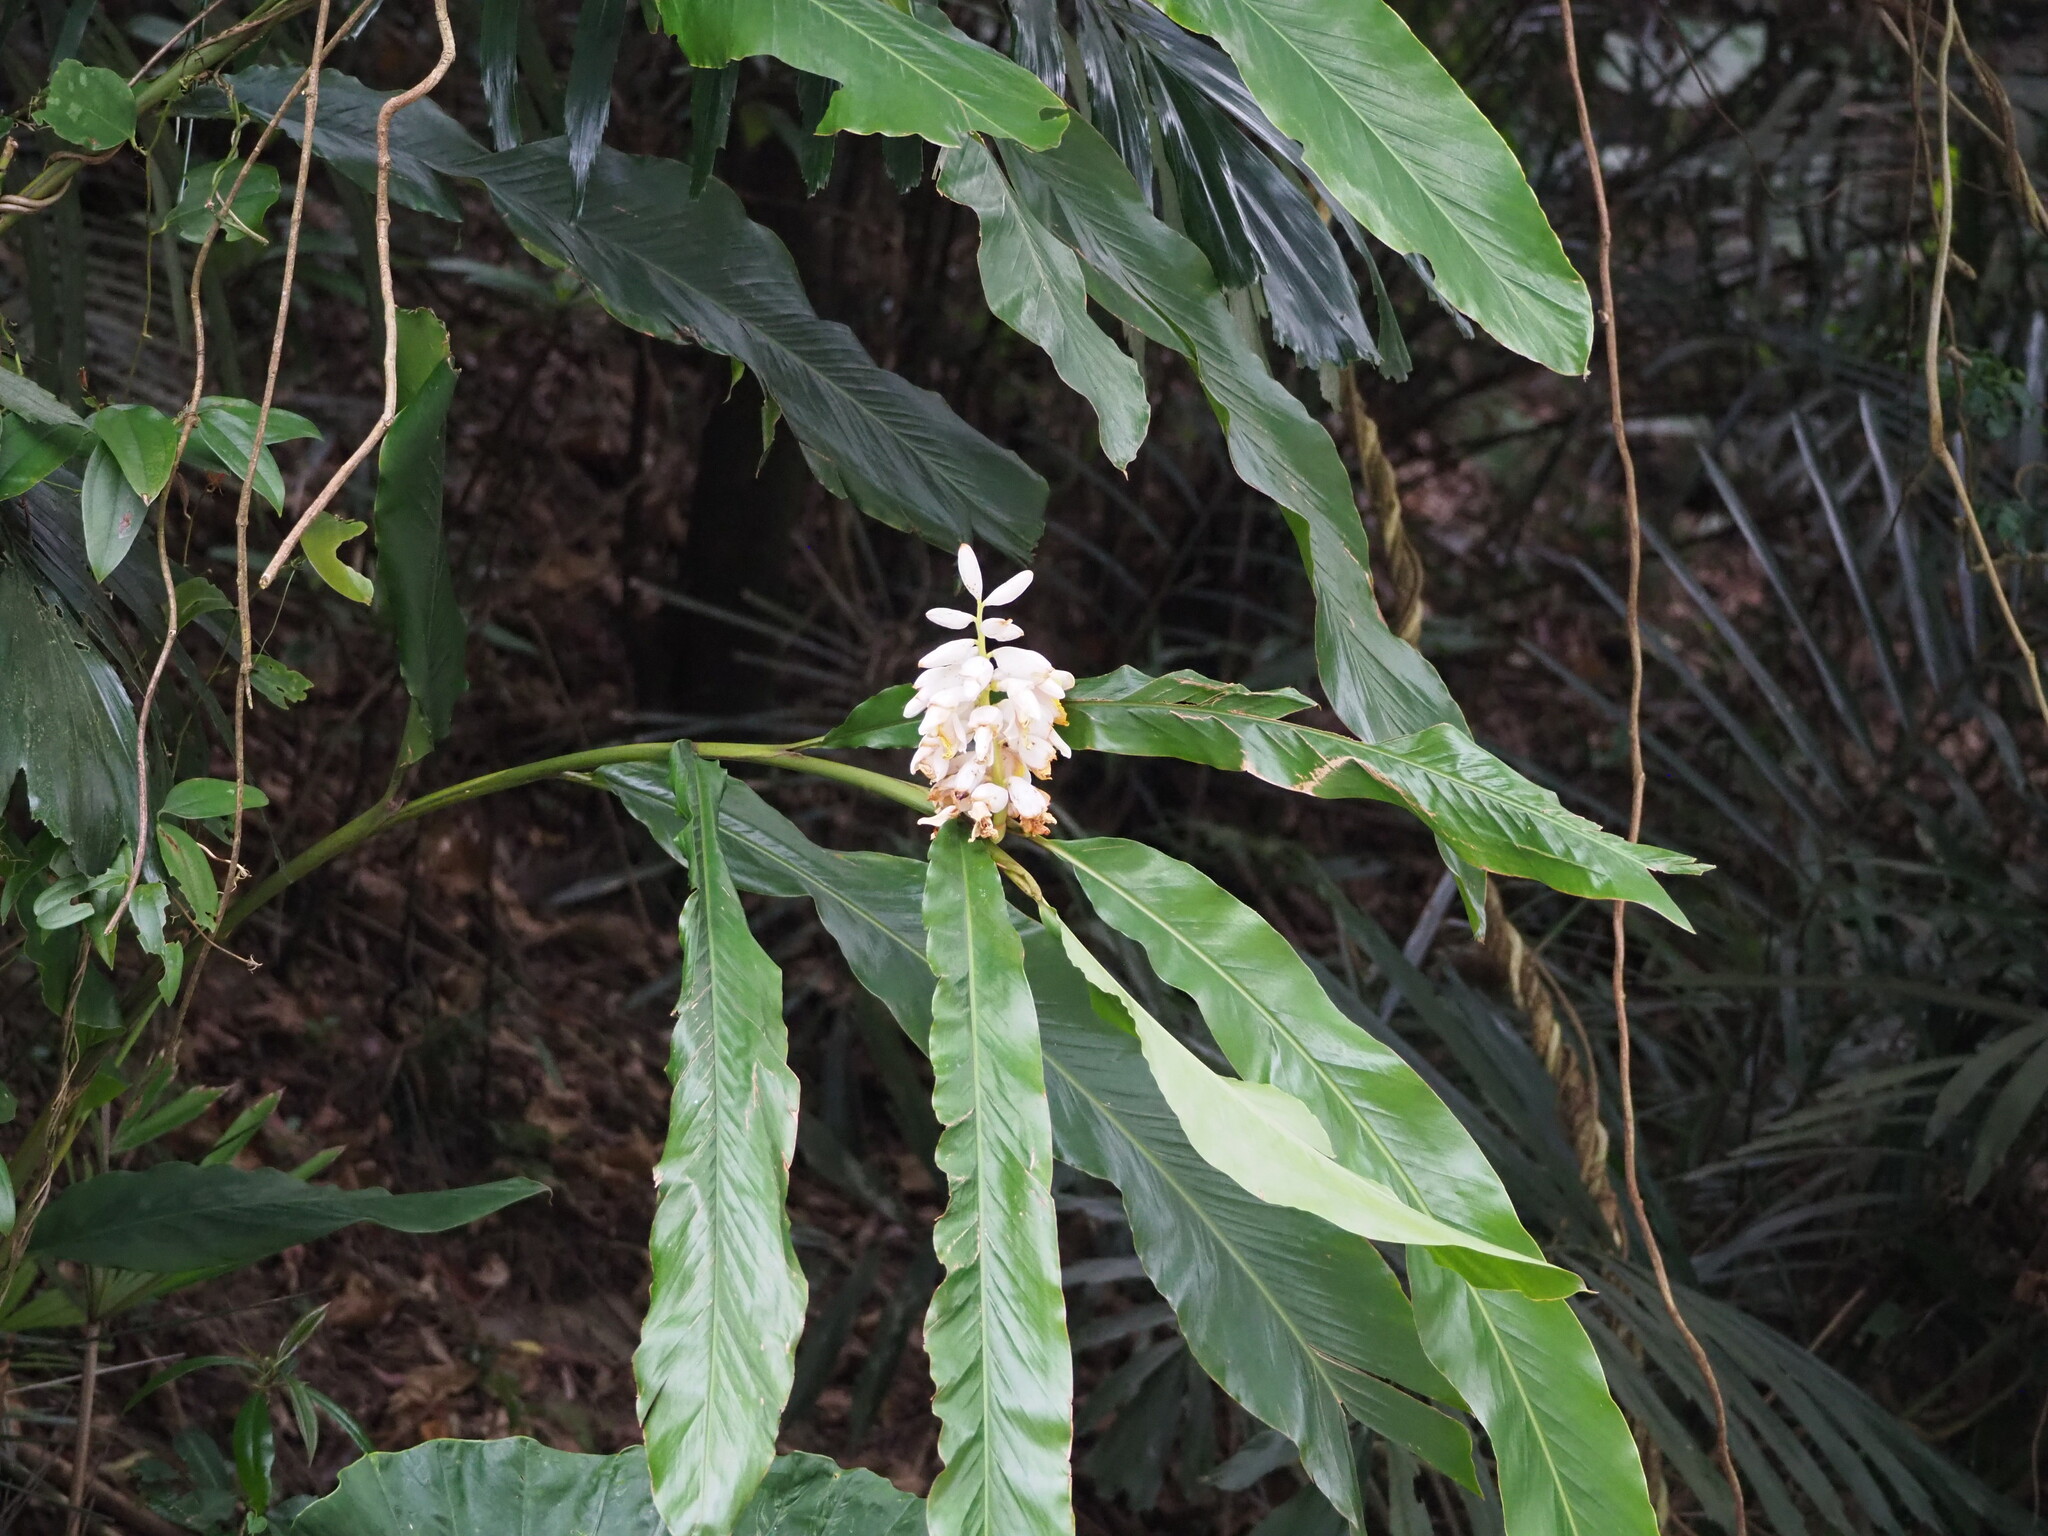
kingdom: Plantae
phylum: Tracheophyta
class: Liliopsida
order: Zingiberales
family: Zingiberaceae
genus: Alpinia
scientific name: Alpinia uraiensis
